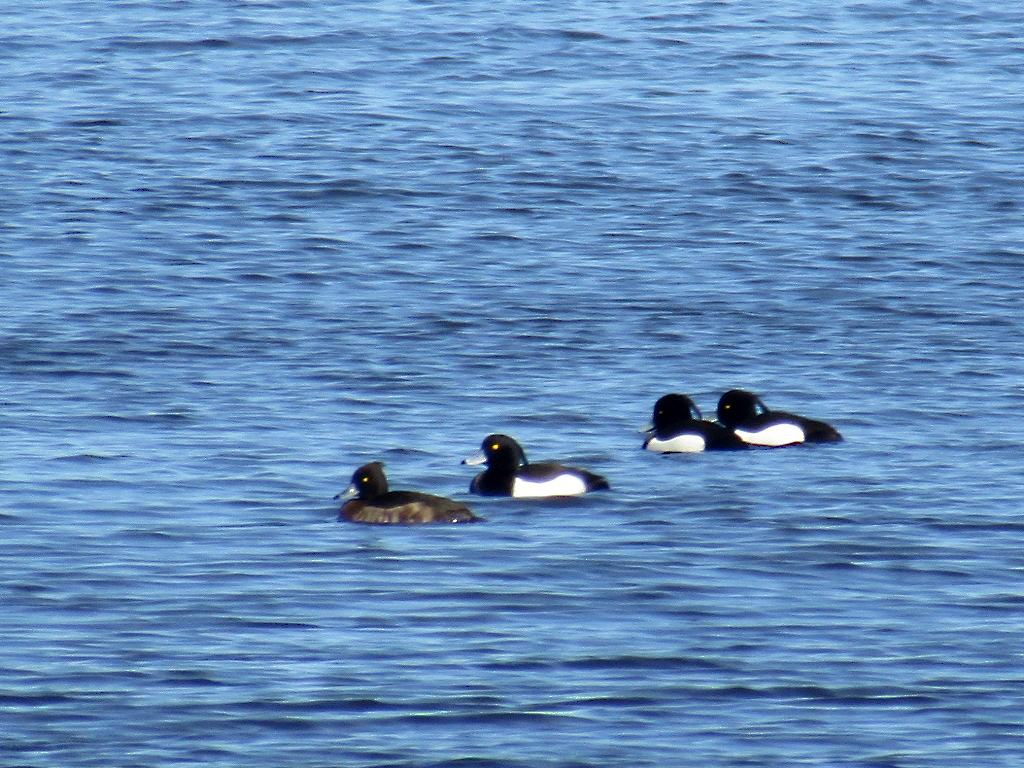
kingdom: Animalia
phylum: Chordata
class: Aves
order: Anseriformes
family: Anatidae
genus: Aythya
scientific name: Aythya fuligula
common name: Tufted duck
